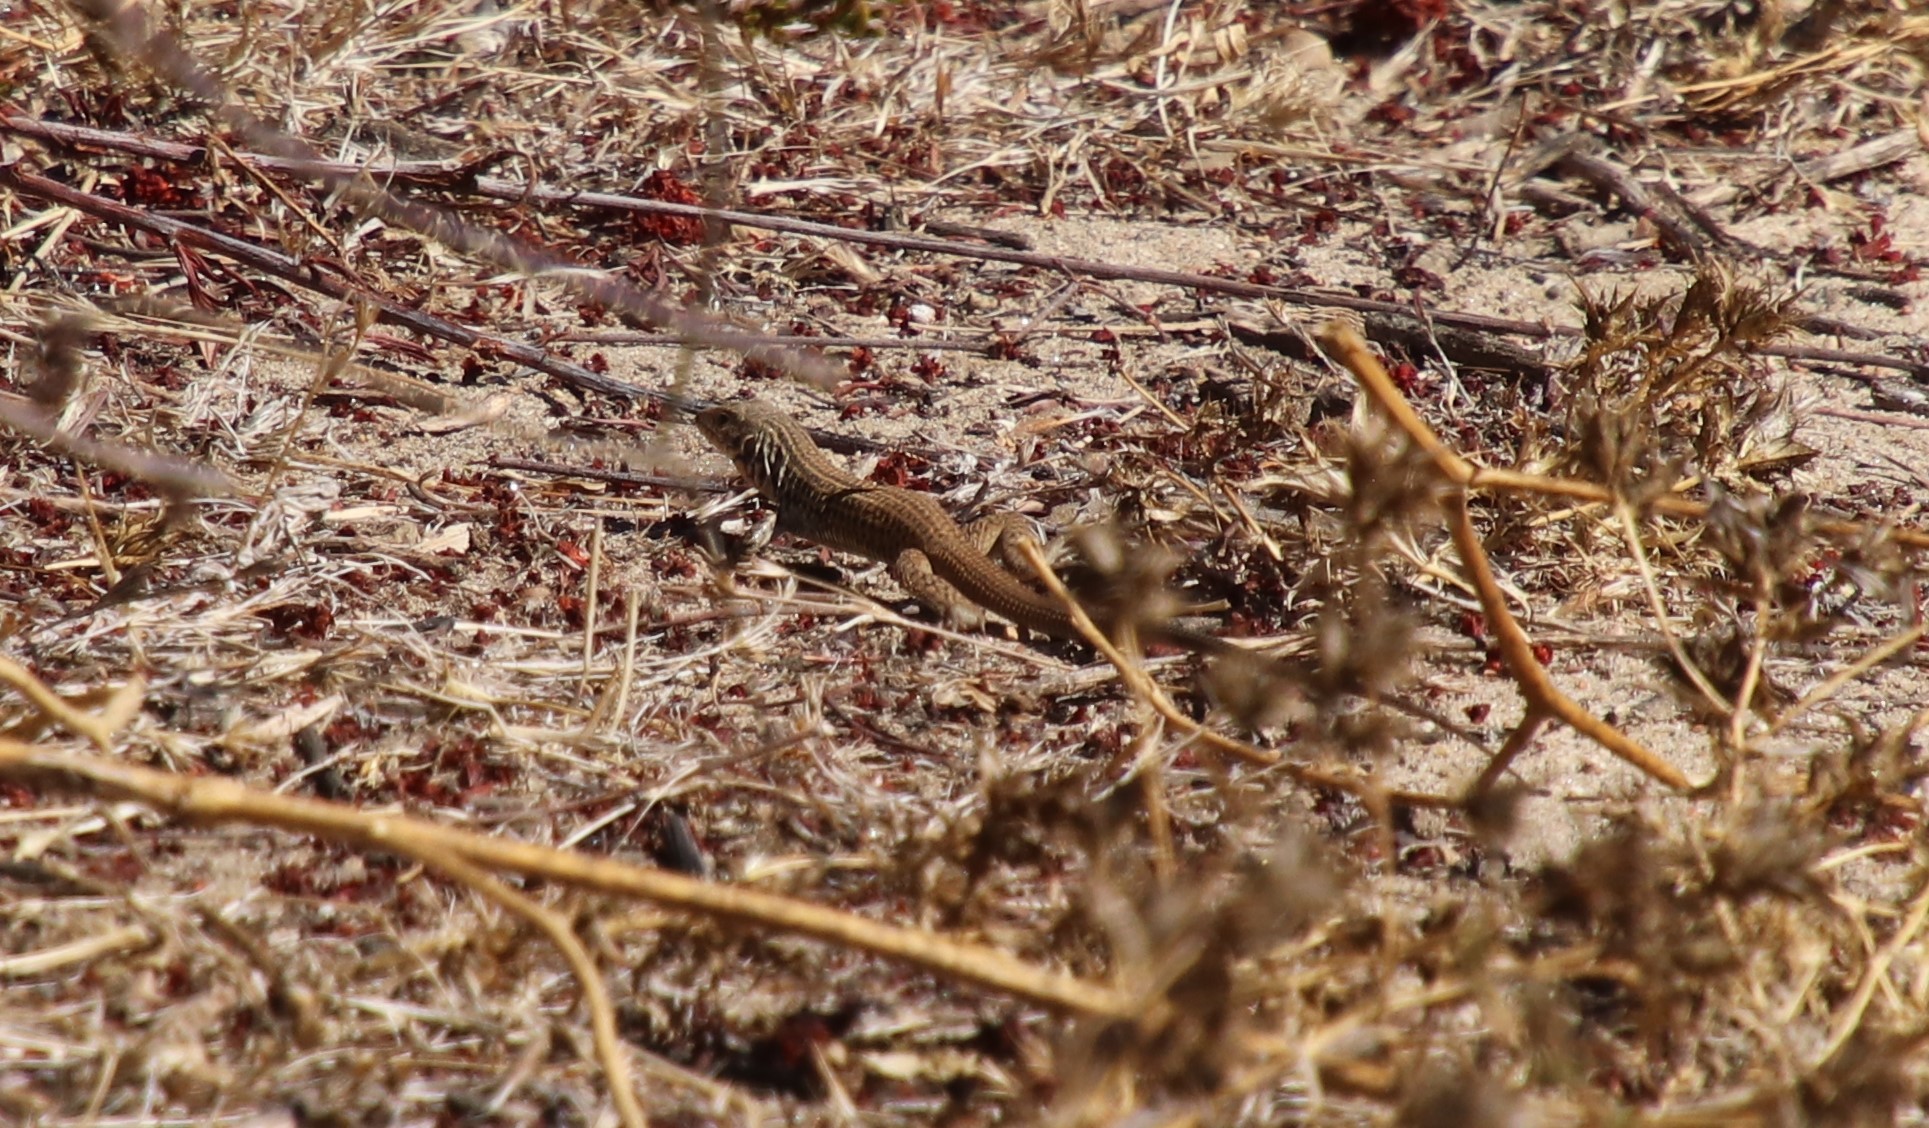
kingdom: Animalia
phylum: Chordata
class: Squamata
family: Teiidae
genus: Aspidoscelis
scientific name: Aspidoscelis tigris
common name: Tiger whiptail
